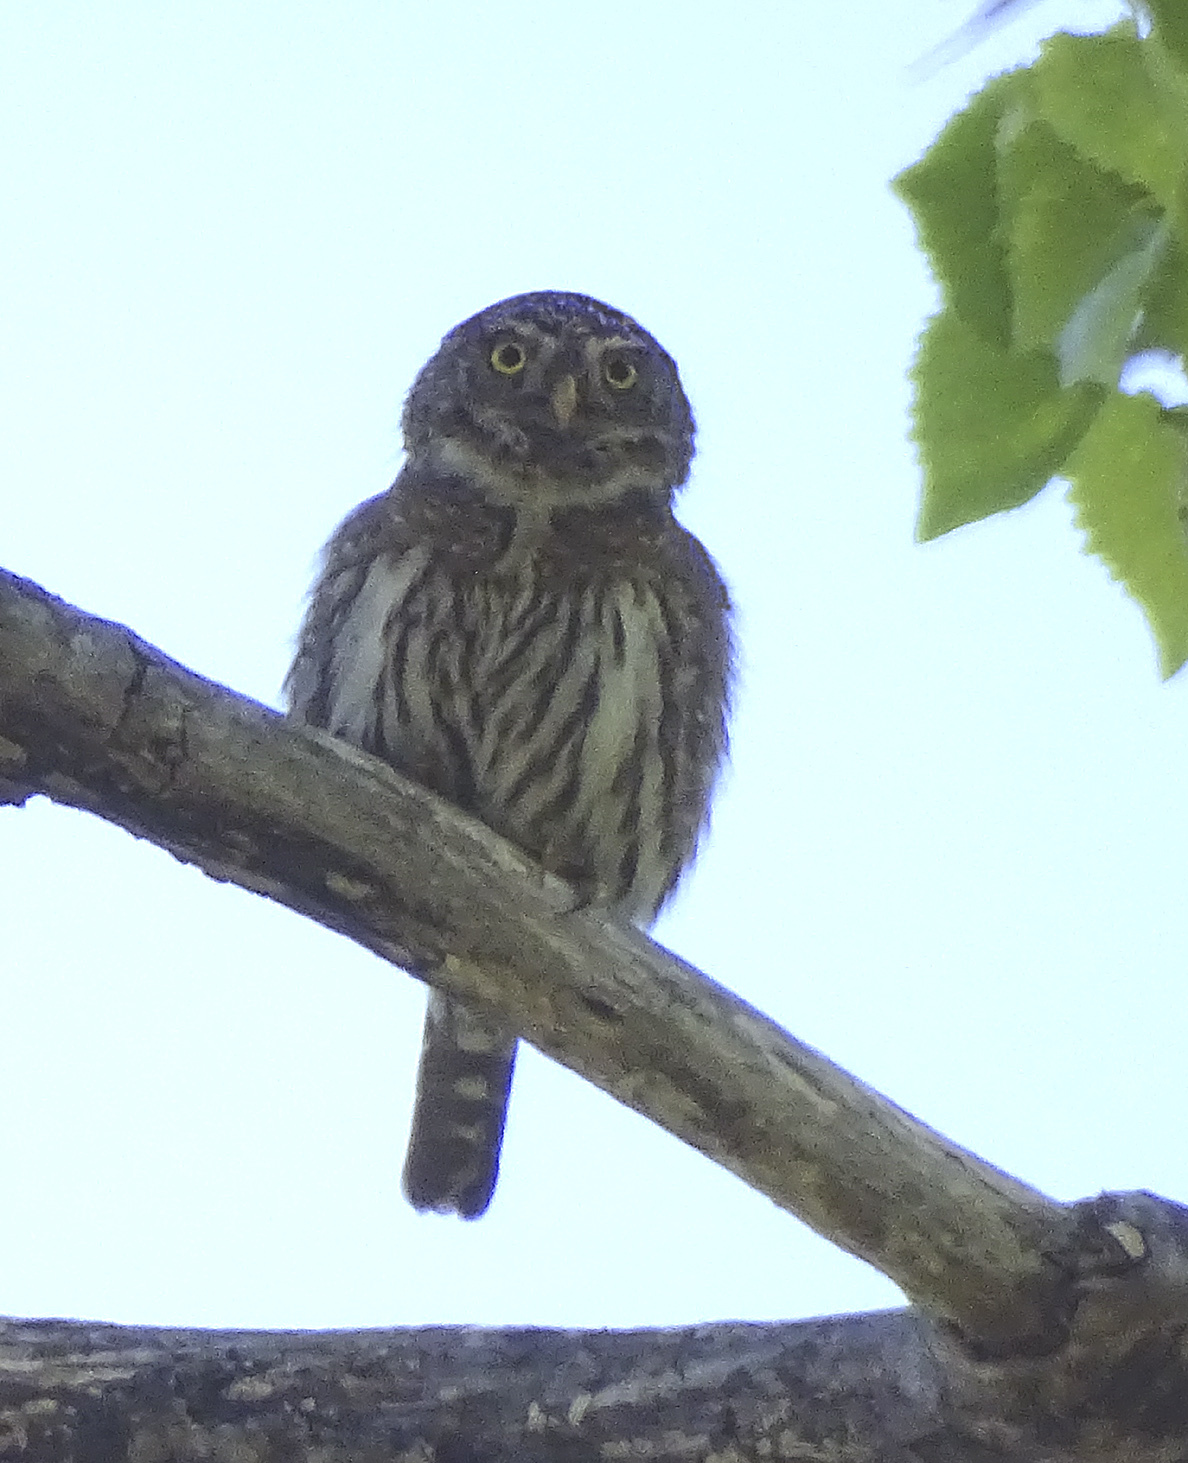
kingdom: Animalia
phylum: Chordata
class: Aves
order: Strigiformes
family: Strigidae
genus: Glaucidium
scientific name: Glaucidium gnoma
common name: Northern pygmy-owl
